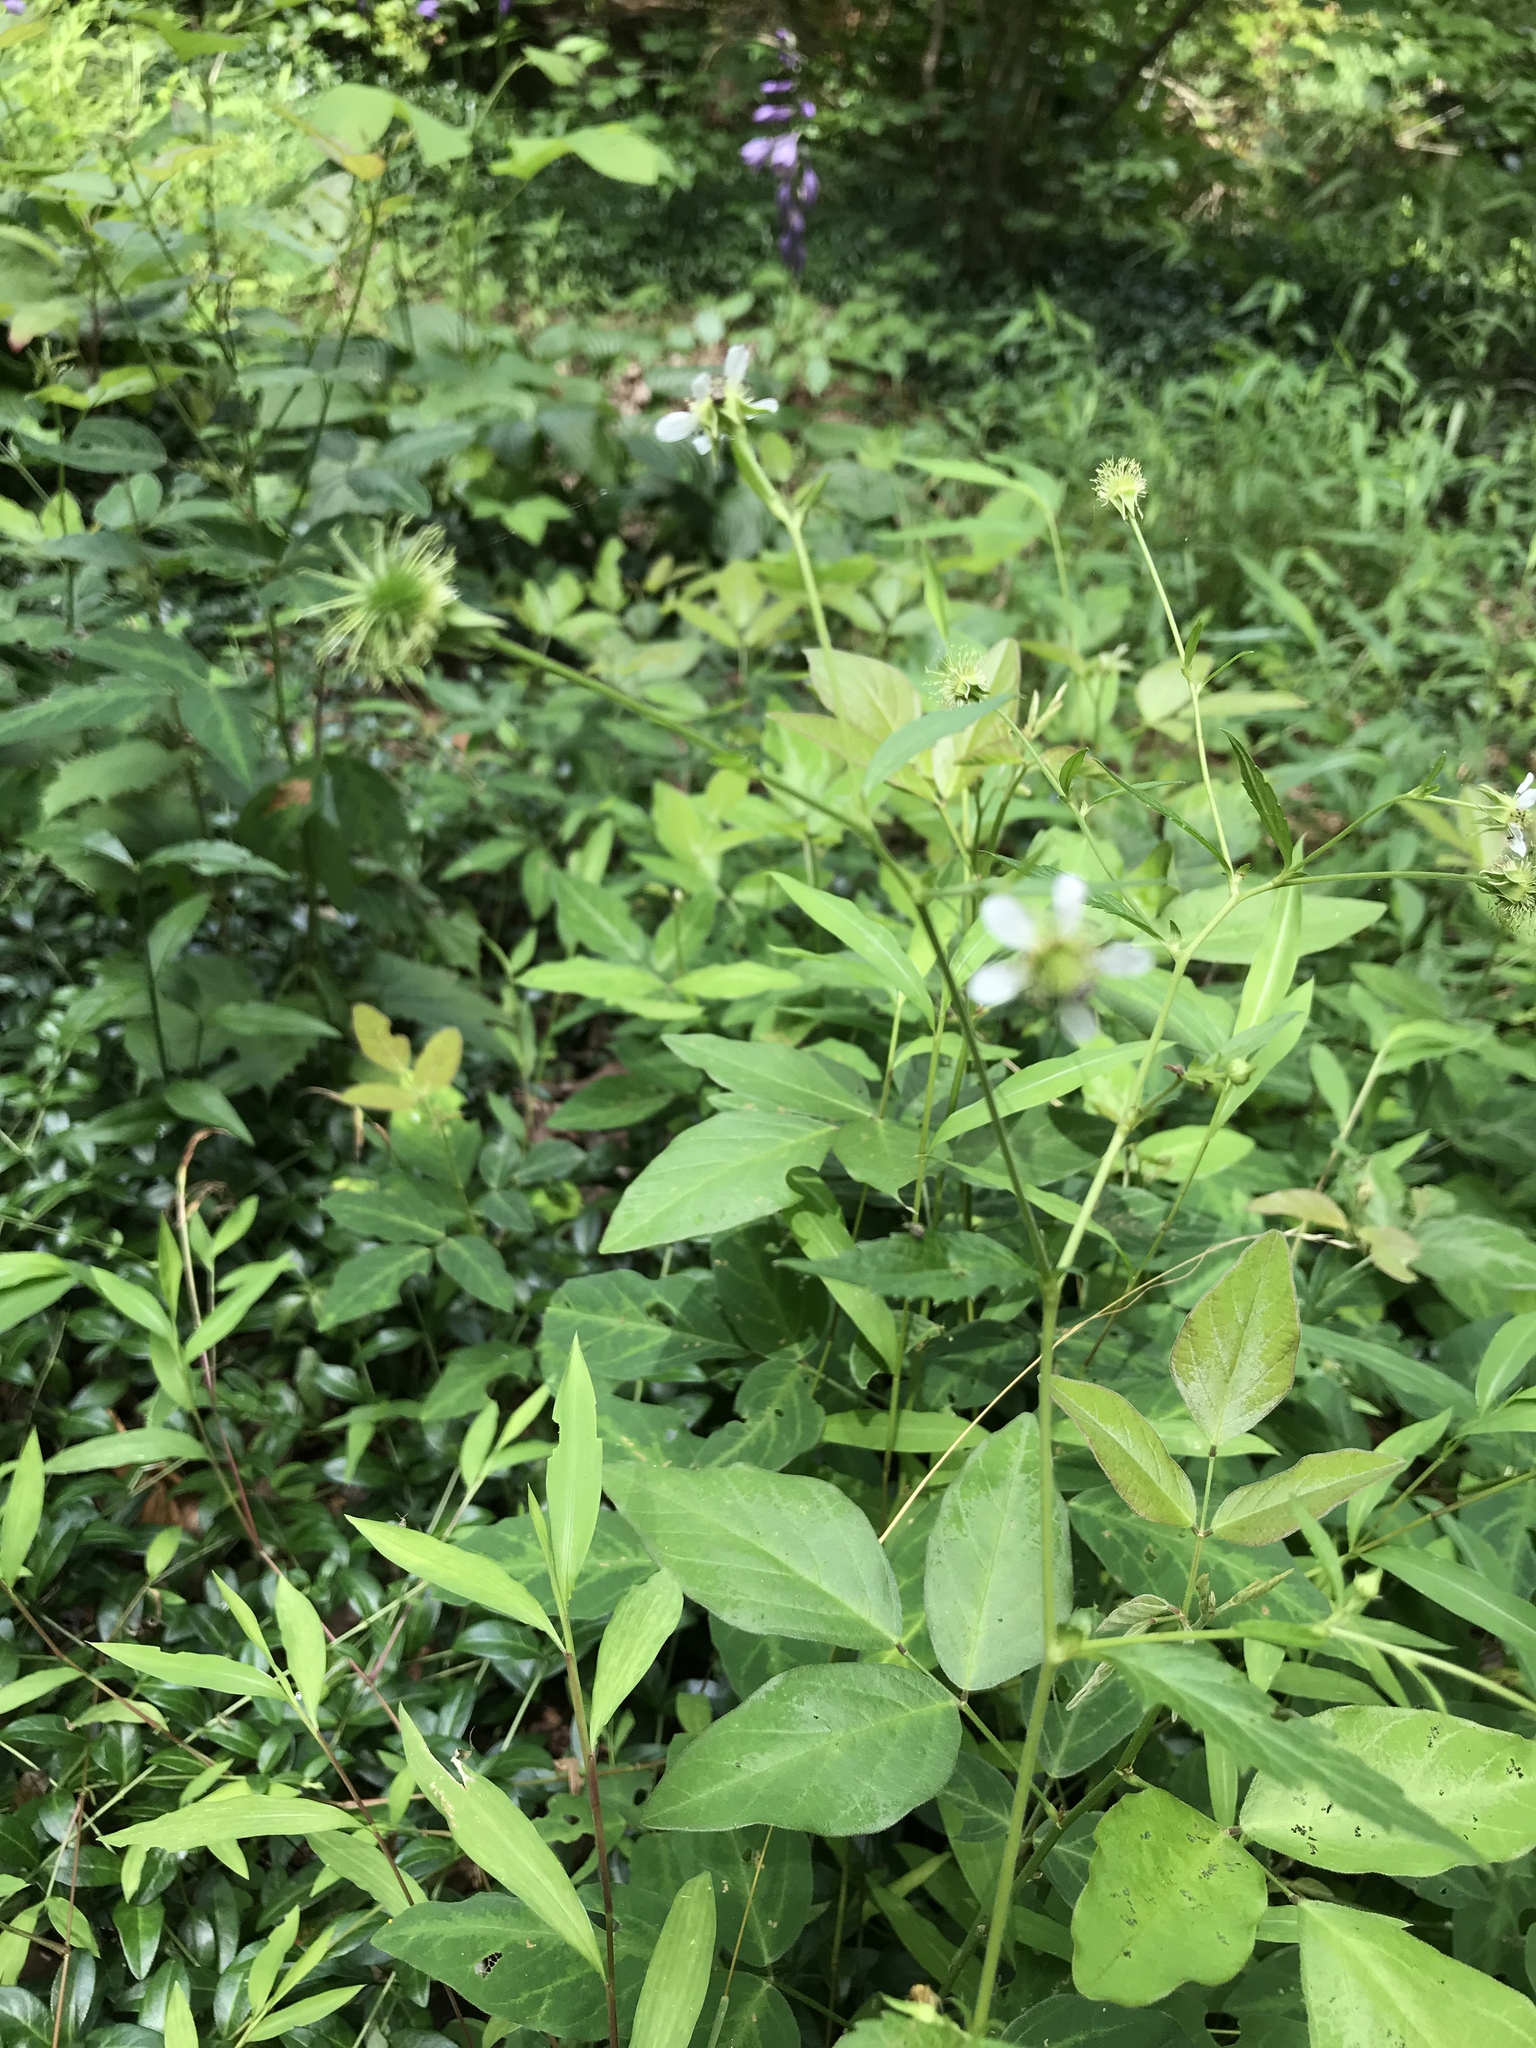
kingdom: Plantae
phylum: Tracheophyta
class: Magnoliopsida
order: Rosales
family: Rosaceae
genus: Geum
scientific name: Geum canadense
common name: White avens
